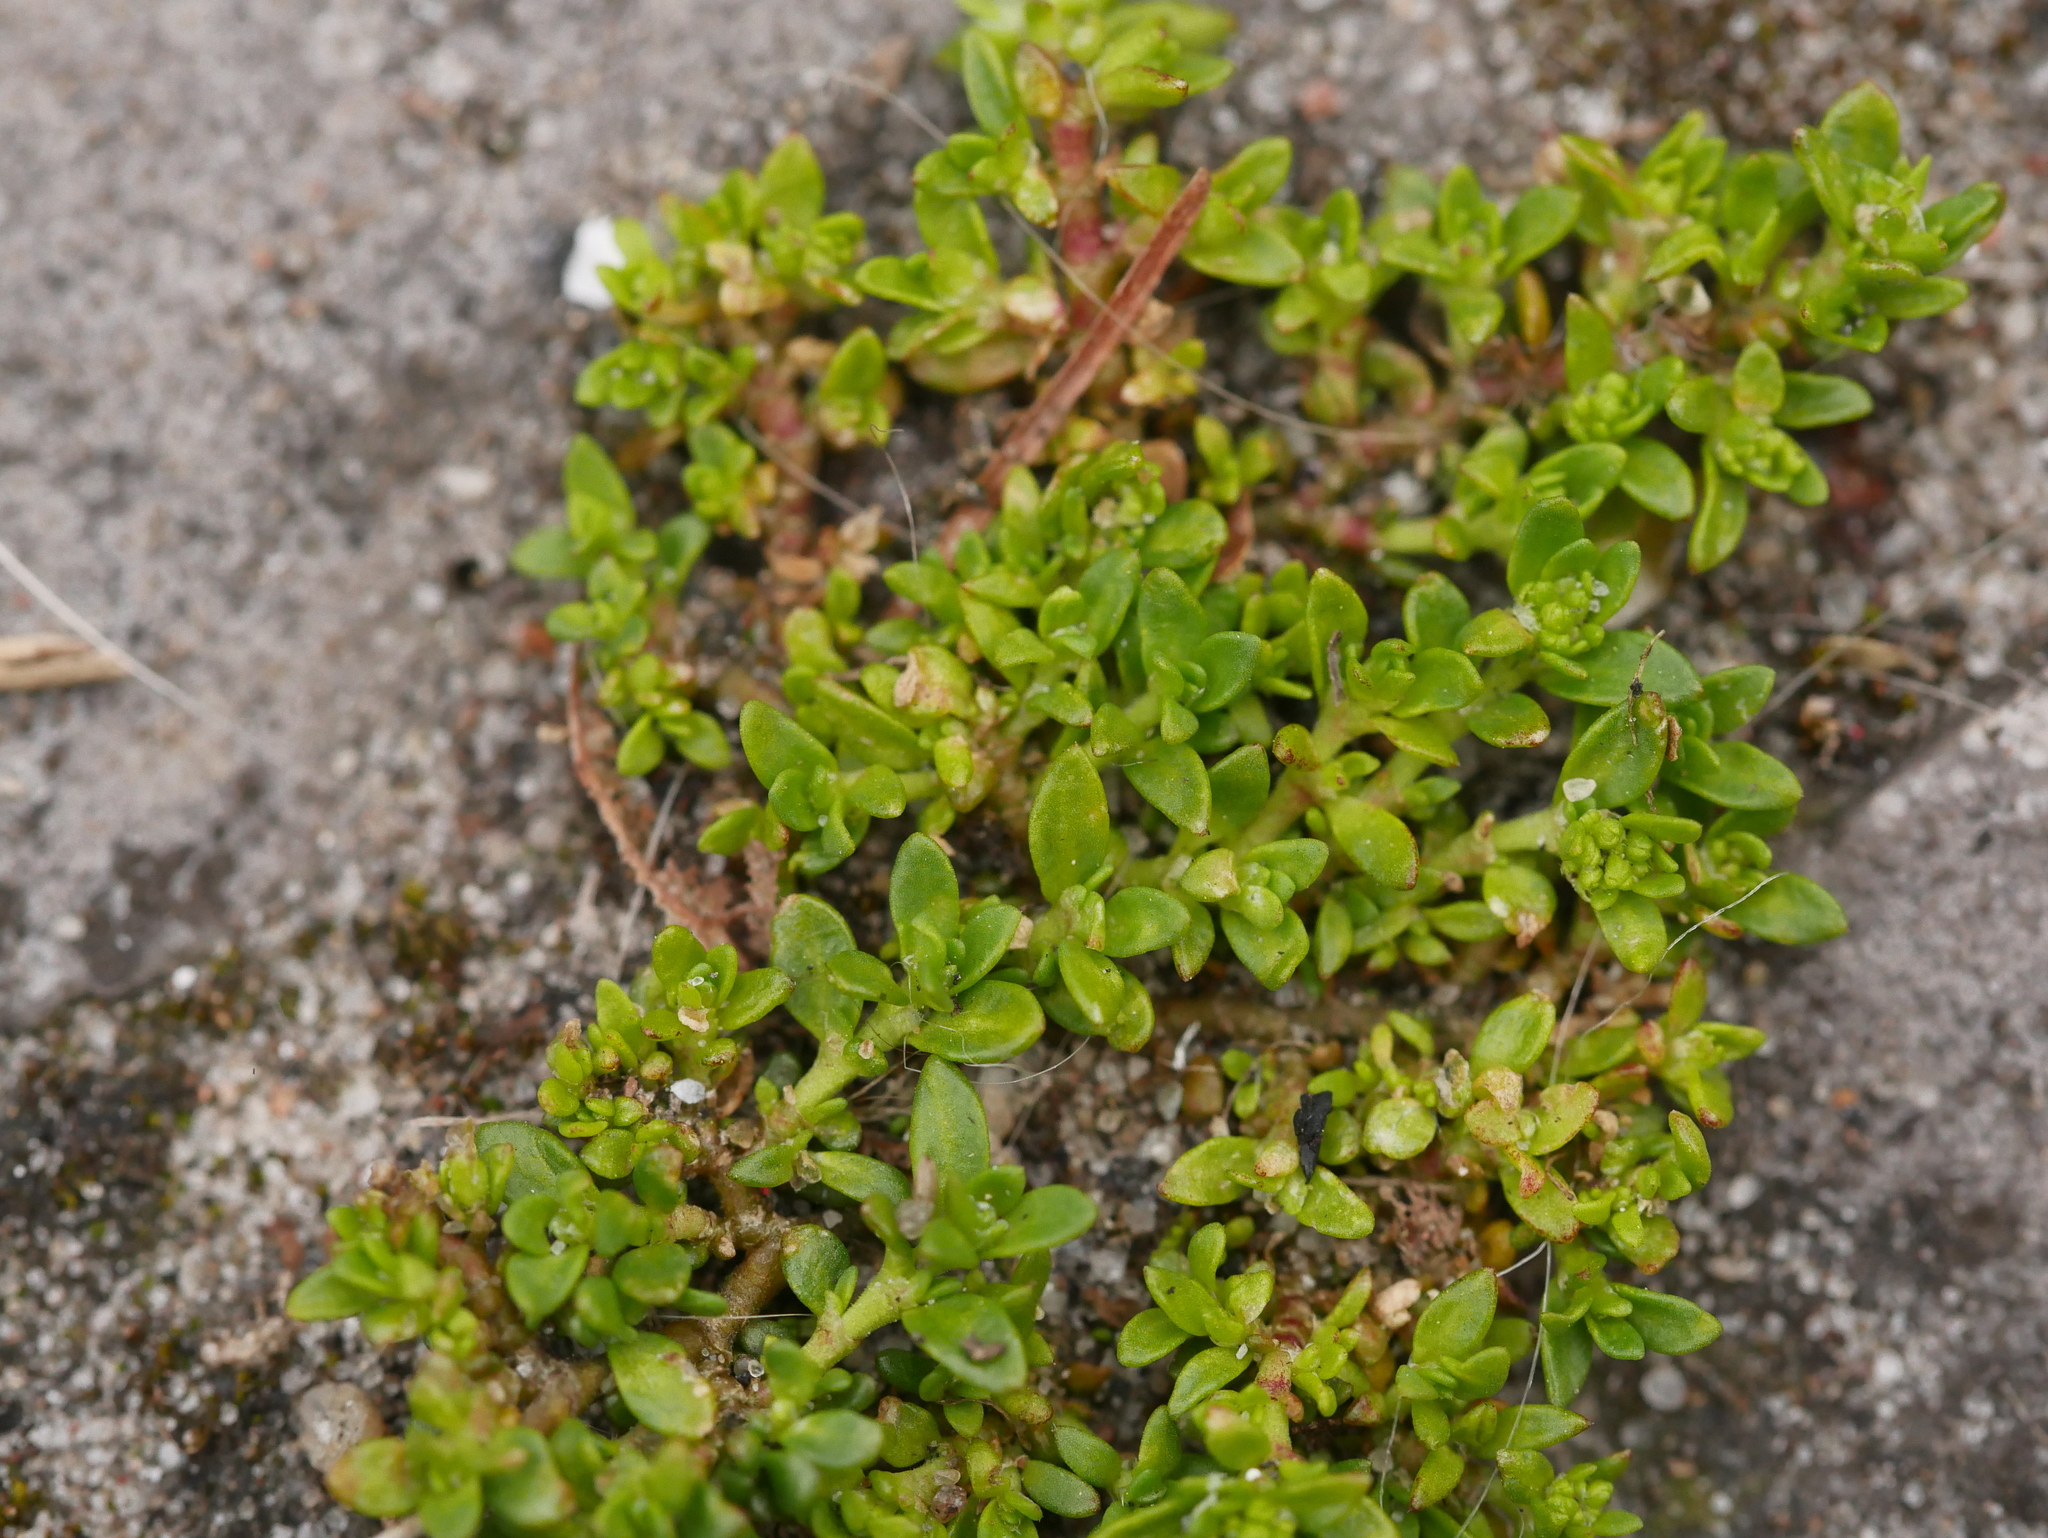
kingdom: Plantae
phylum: Tracheophyta
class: Magnoliopsida
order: Caryophyllales
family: Caryophyllaceae
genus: Herniaria
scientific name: Herniaria glabra
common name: Smooth rupturewort
